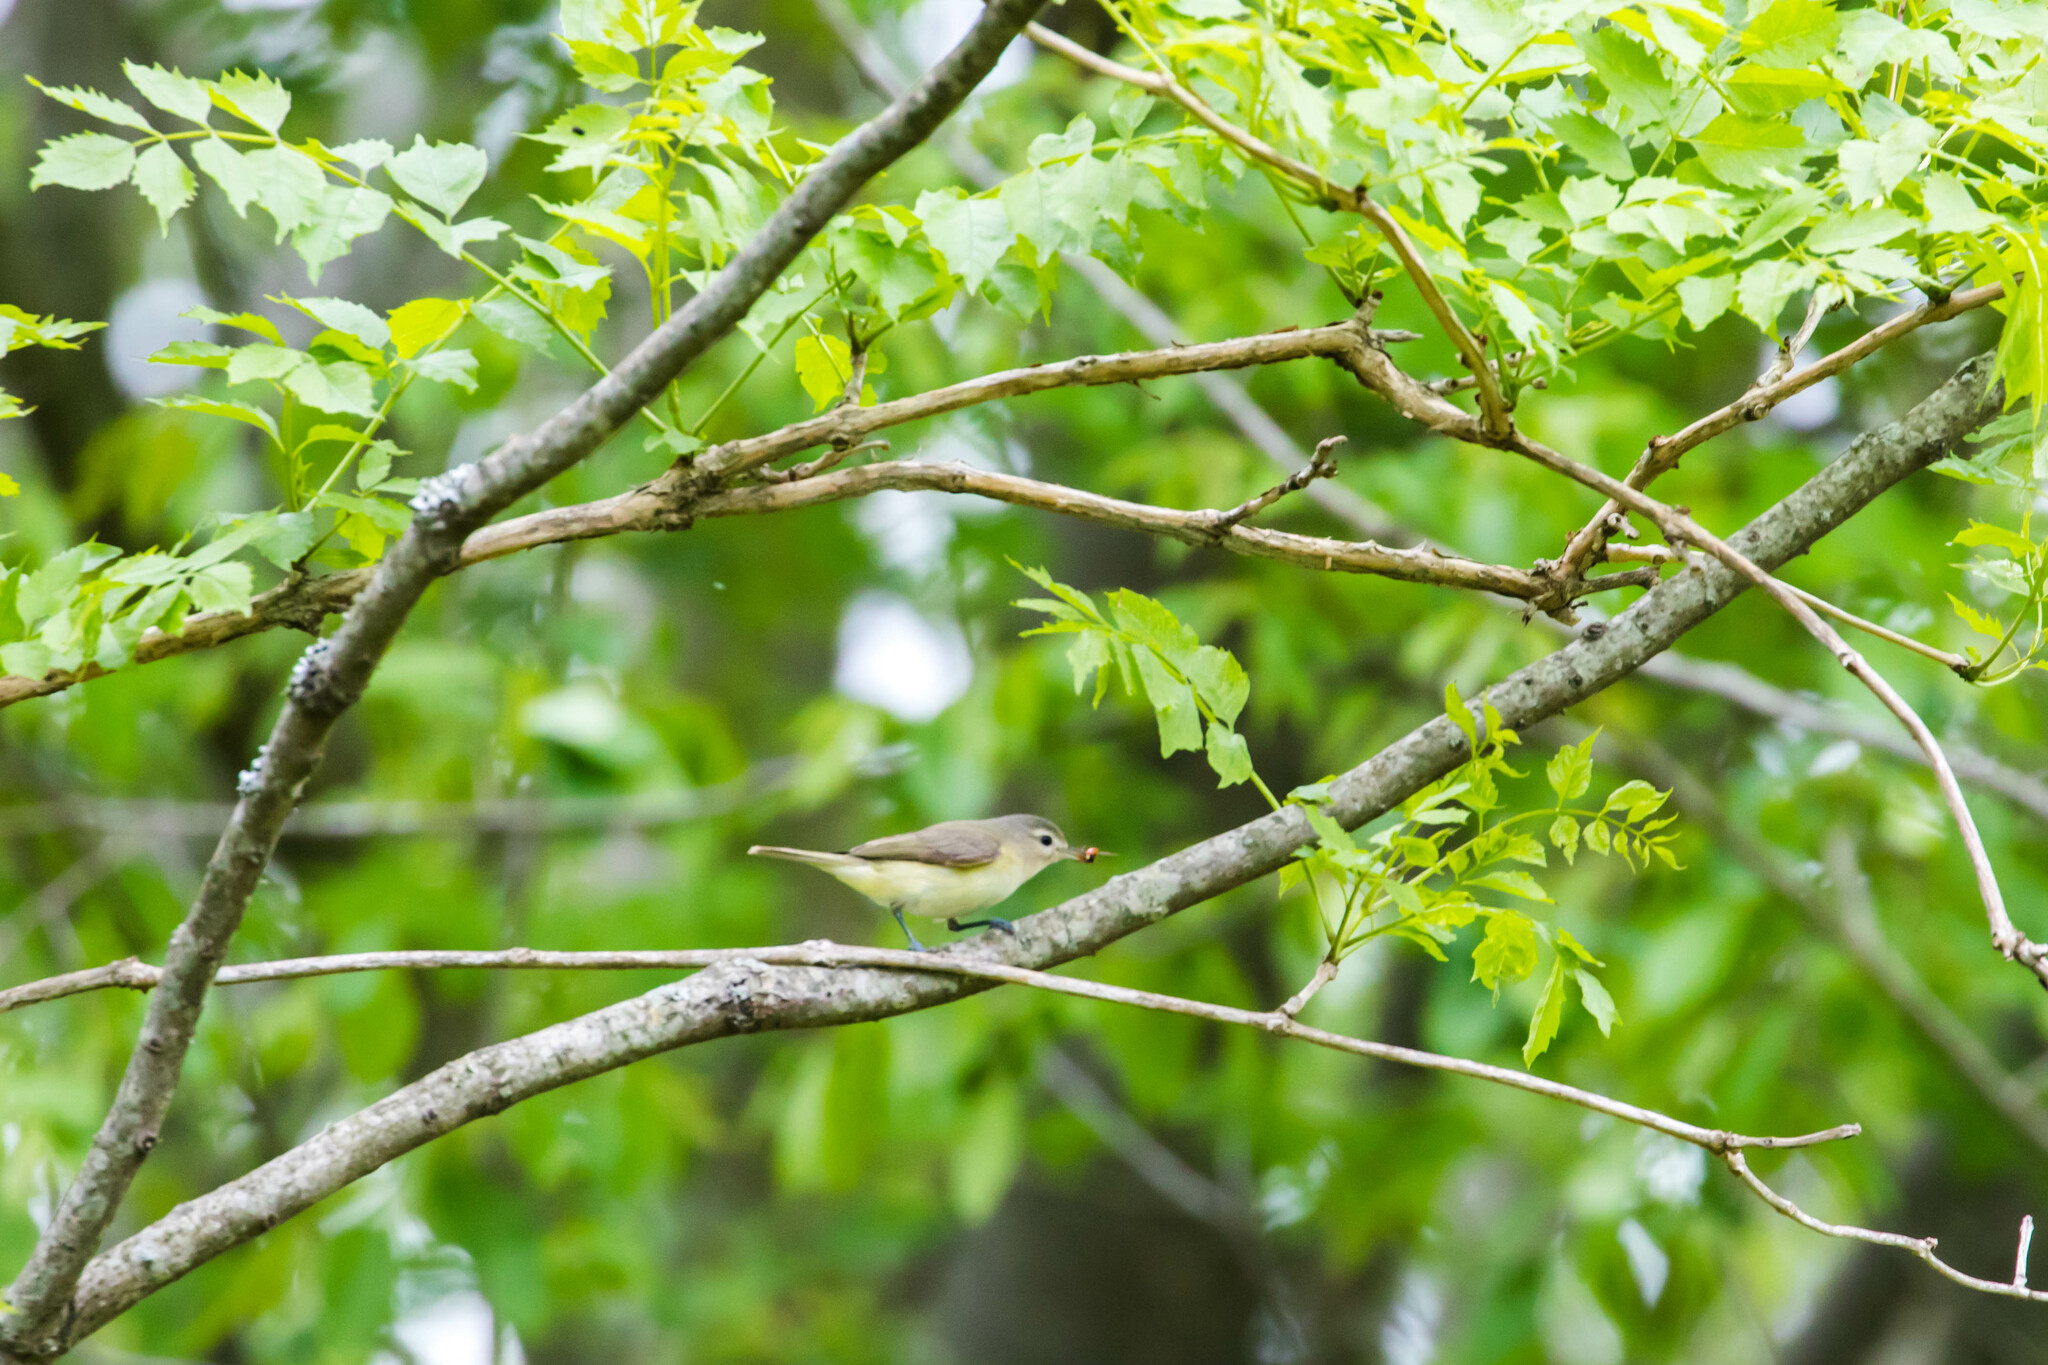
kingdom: Animalia
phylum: Chordata
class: Aves
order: Passeriformes
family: Vireonidae
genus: Vireo
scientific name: Vireo gilvus
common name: Warbling vireo
